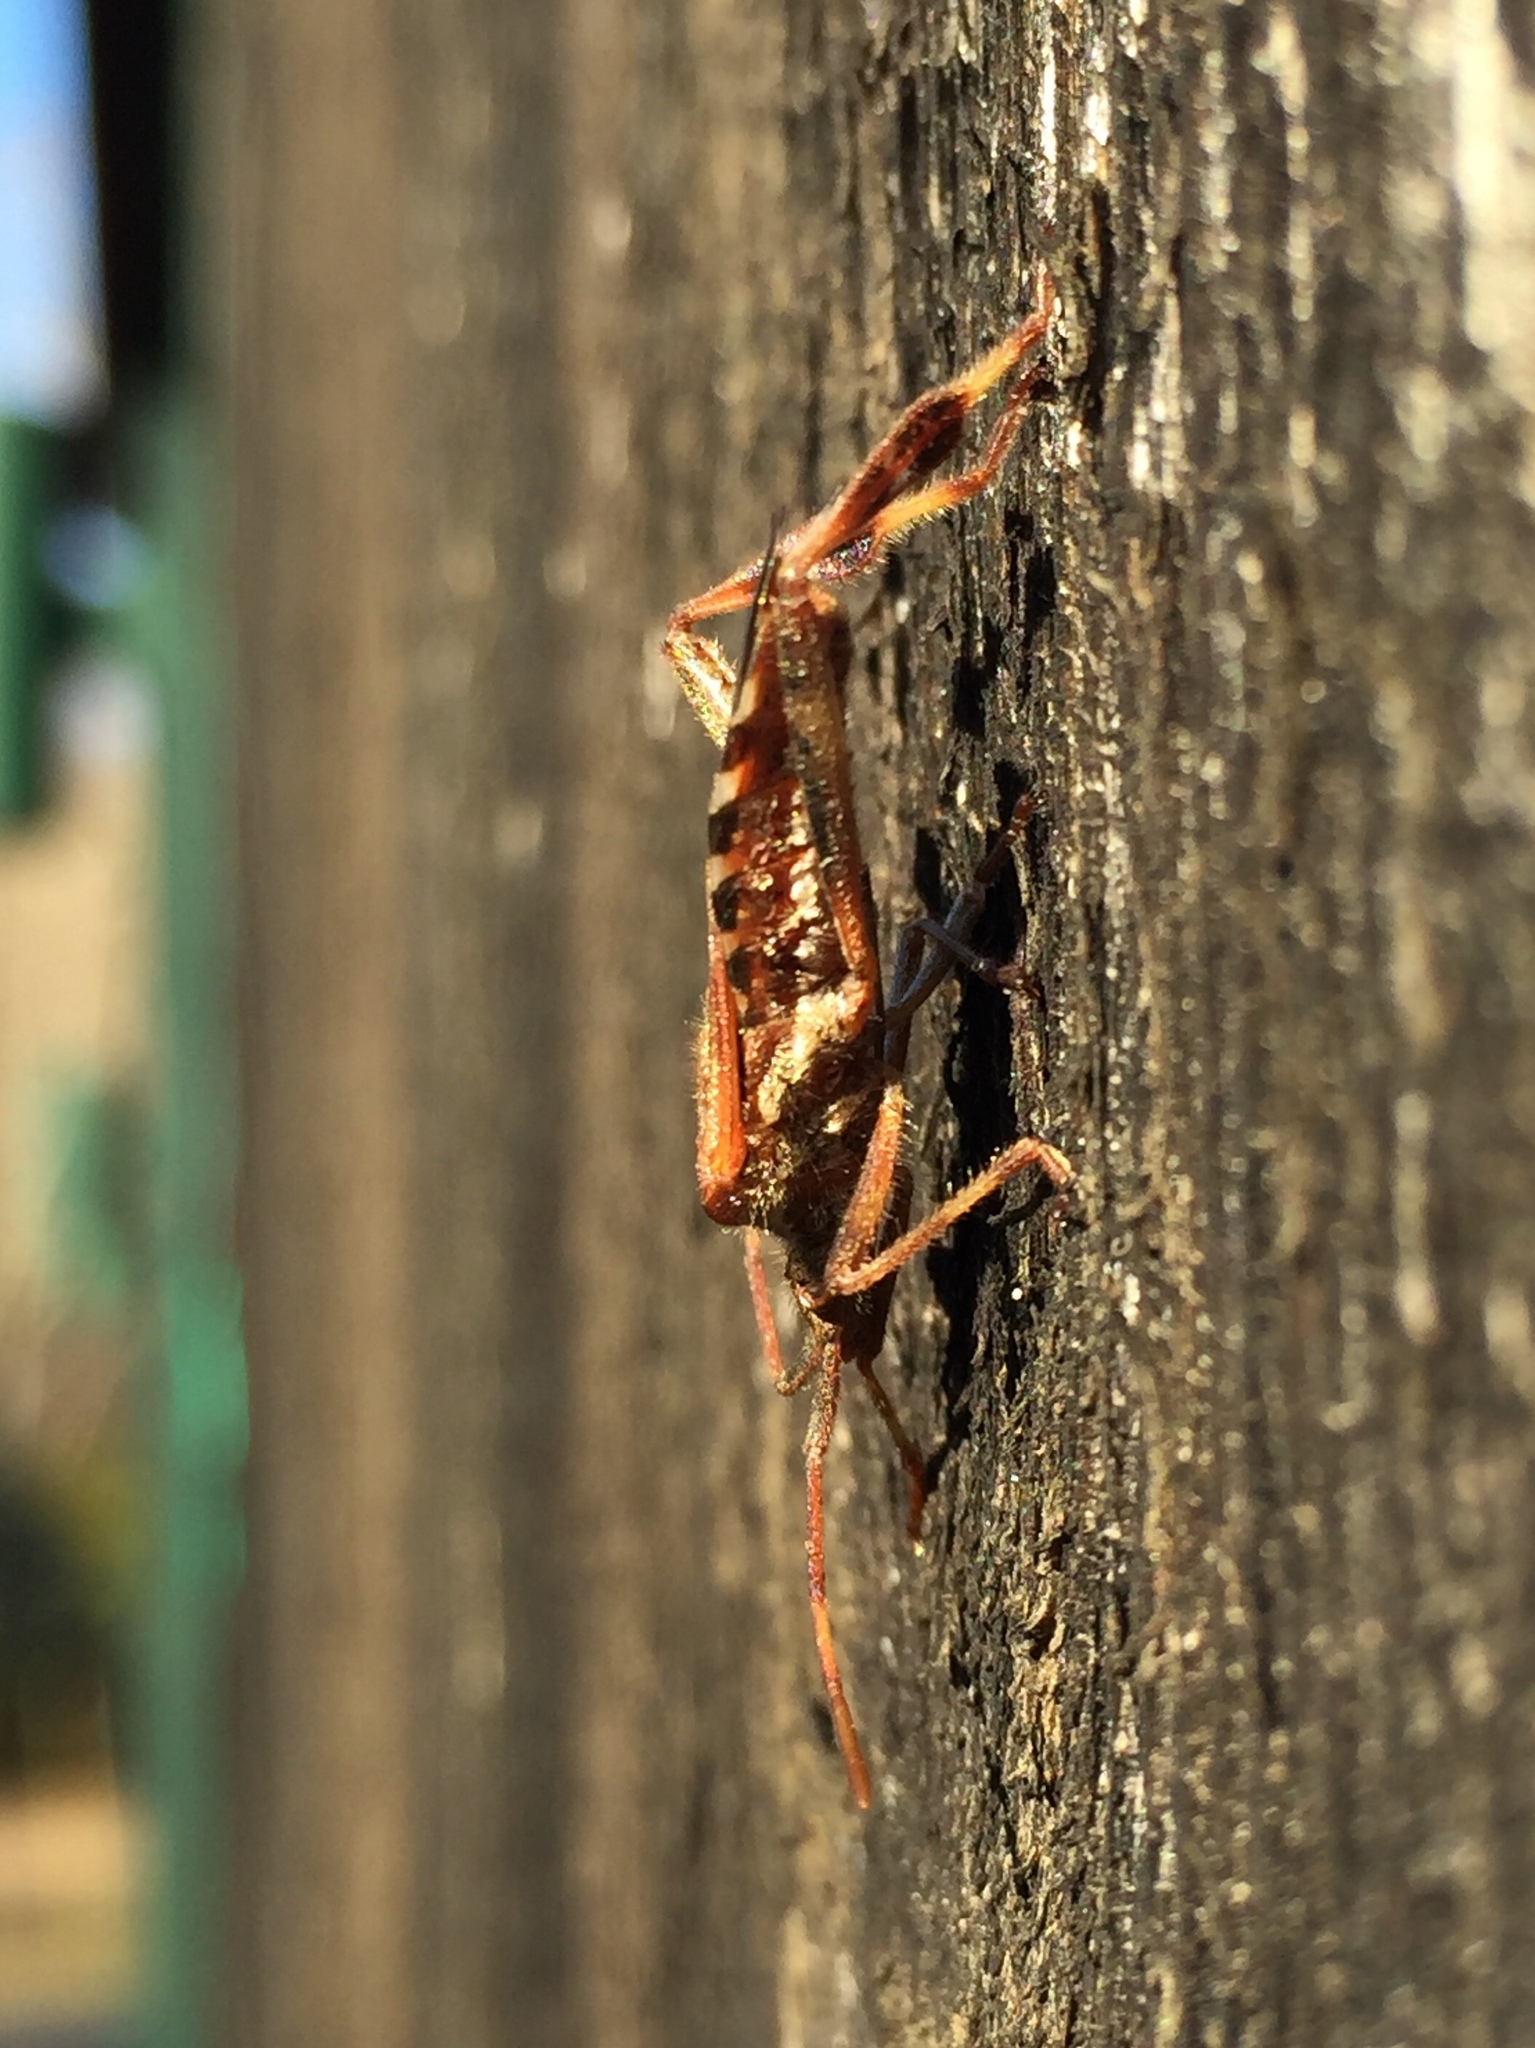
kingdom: Animalia
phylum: Arthropoda
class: Insecta
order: Hemiptera
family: Coreidae
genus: Leptoglossus
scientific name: Leptoglossus occidentalis
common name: Western conifer-seed bug
